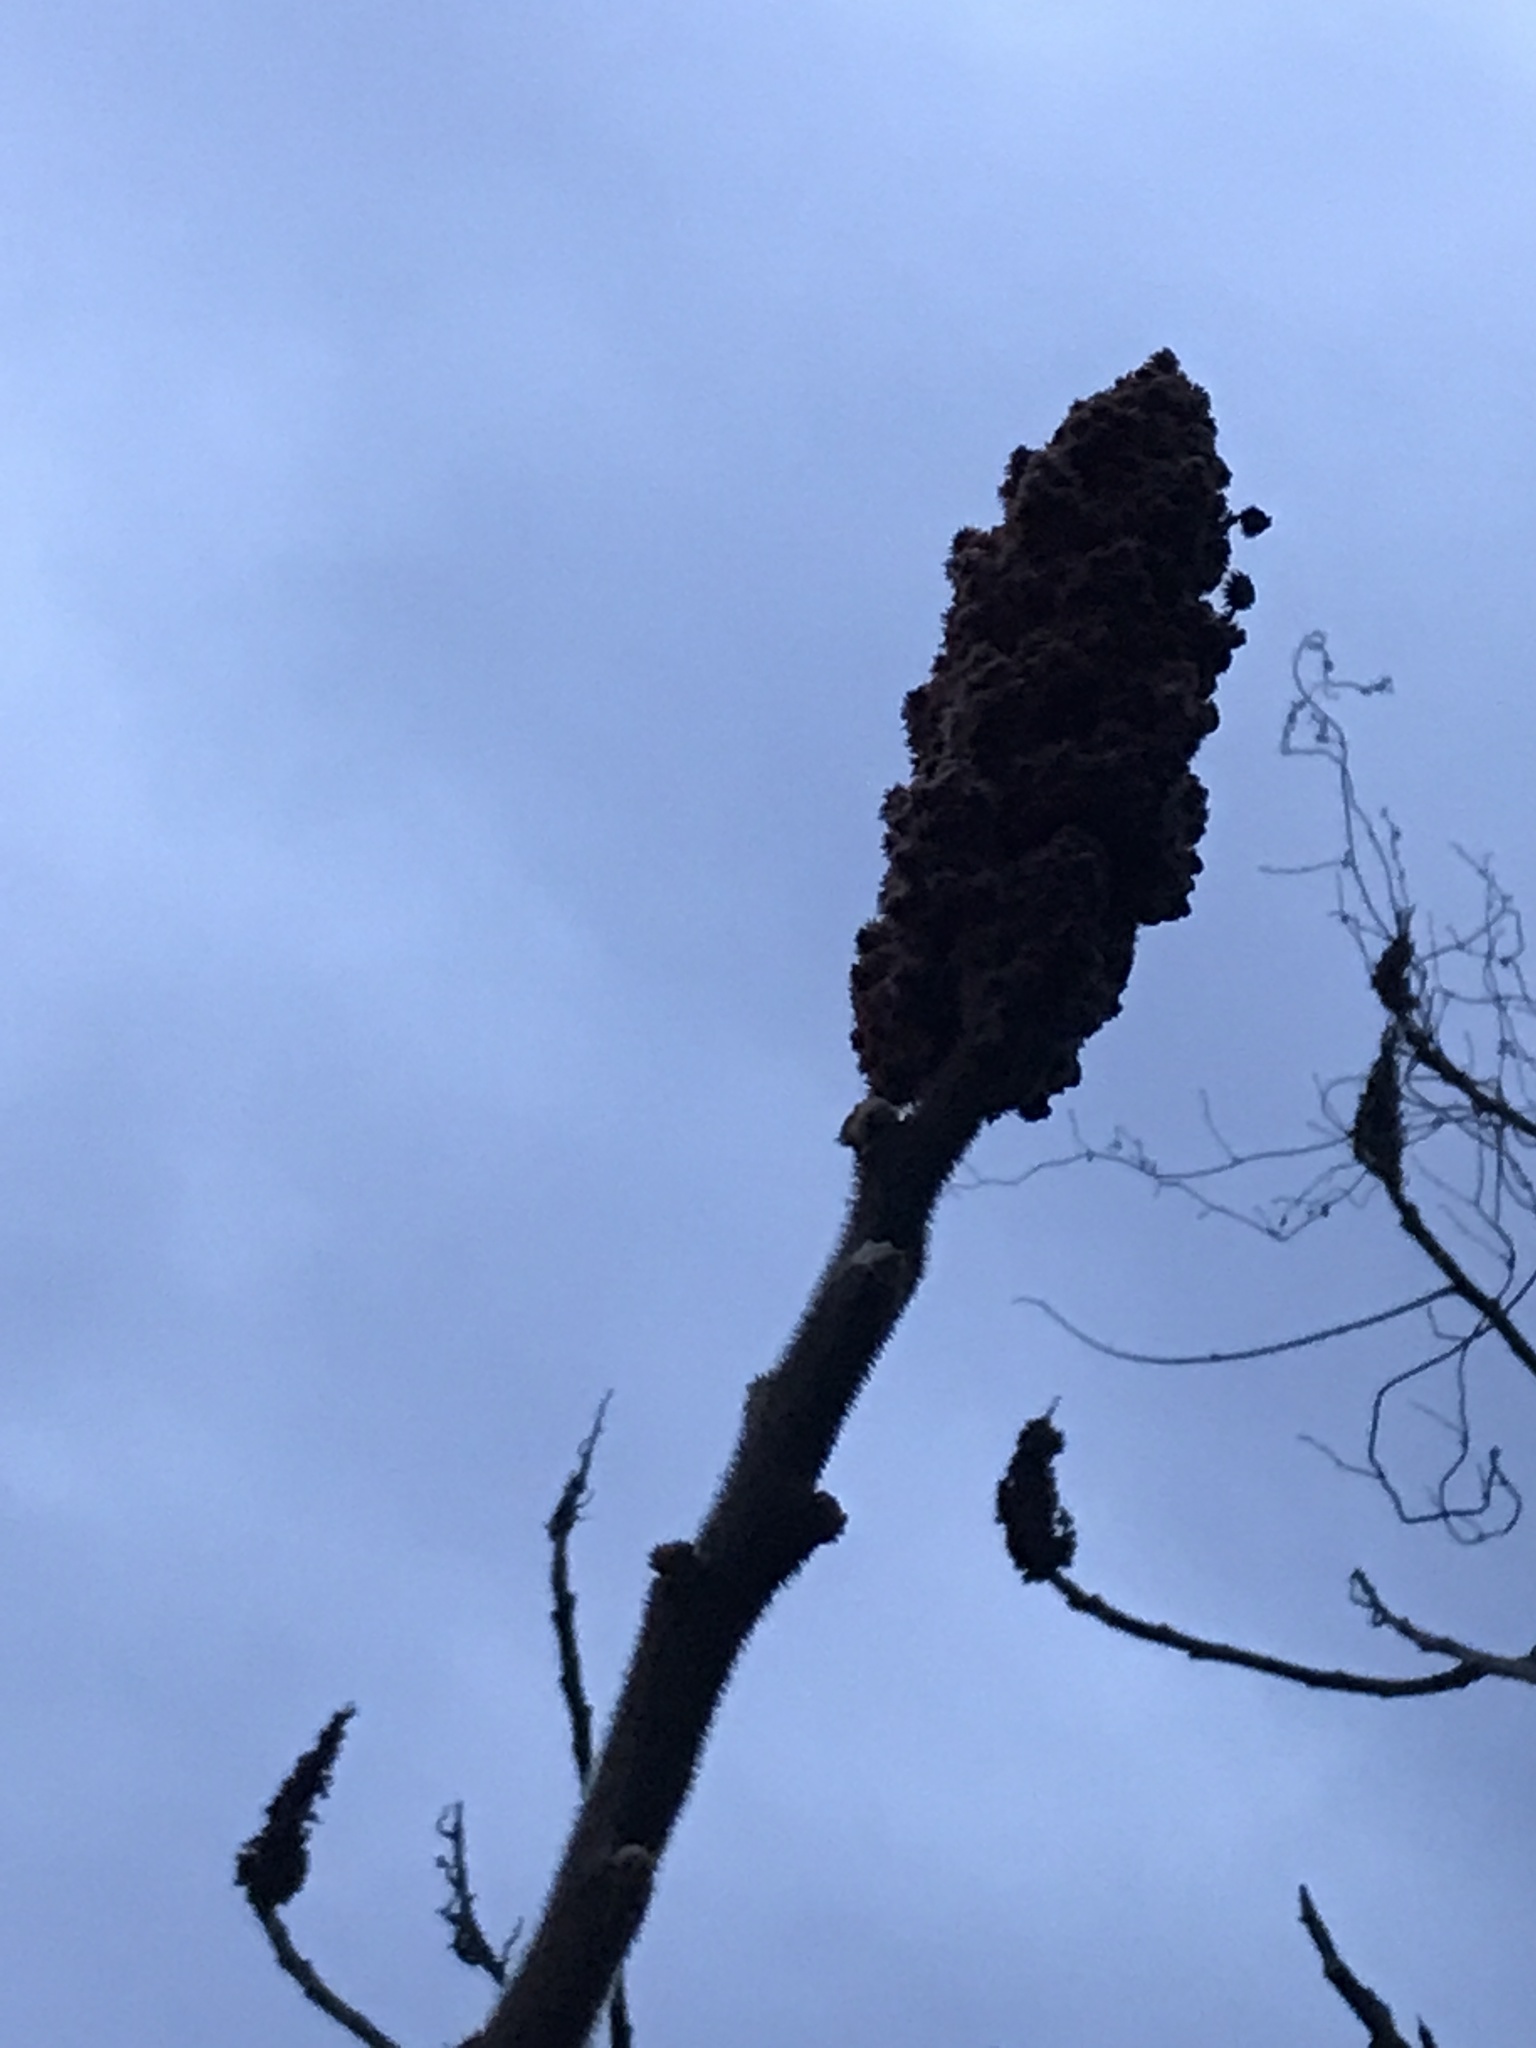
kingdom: Plantae
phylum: Tracheophyta
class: Magnoliopsida
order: Sapindales
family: Anacardiaceae
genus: Rhus
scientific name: Rhus typhina
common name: Staghorn sumac
